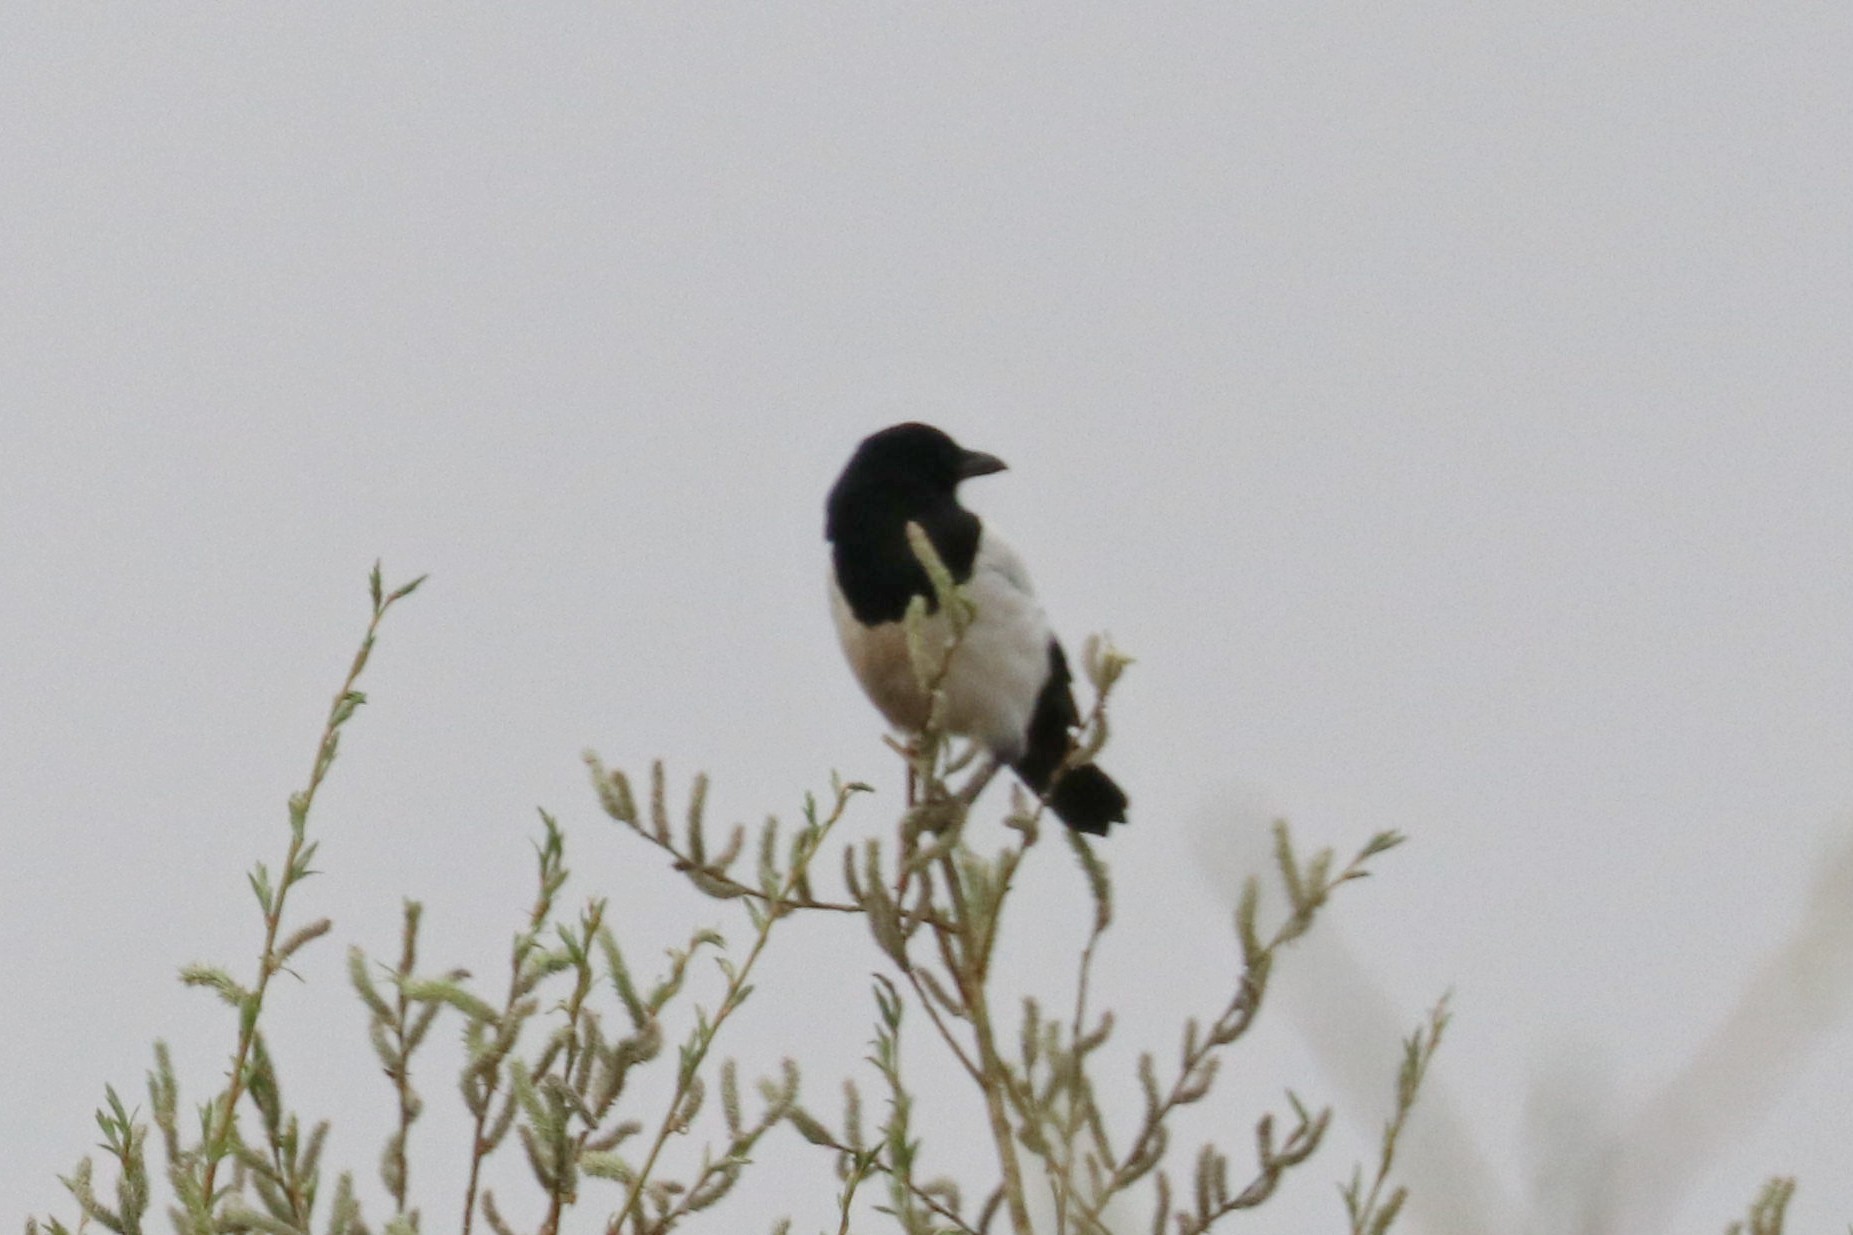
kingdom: Animalia
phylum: Chordata
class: Aves
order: Passeriformes
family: Corvidae
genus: Pica
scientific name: Pica pica
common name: Eurasian magpie
